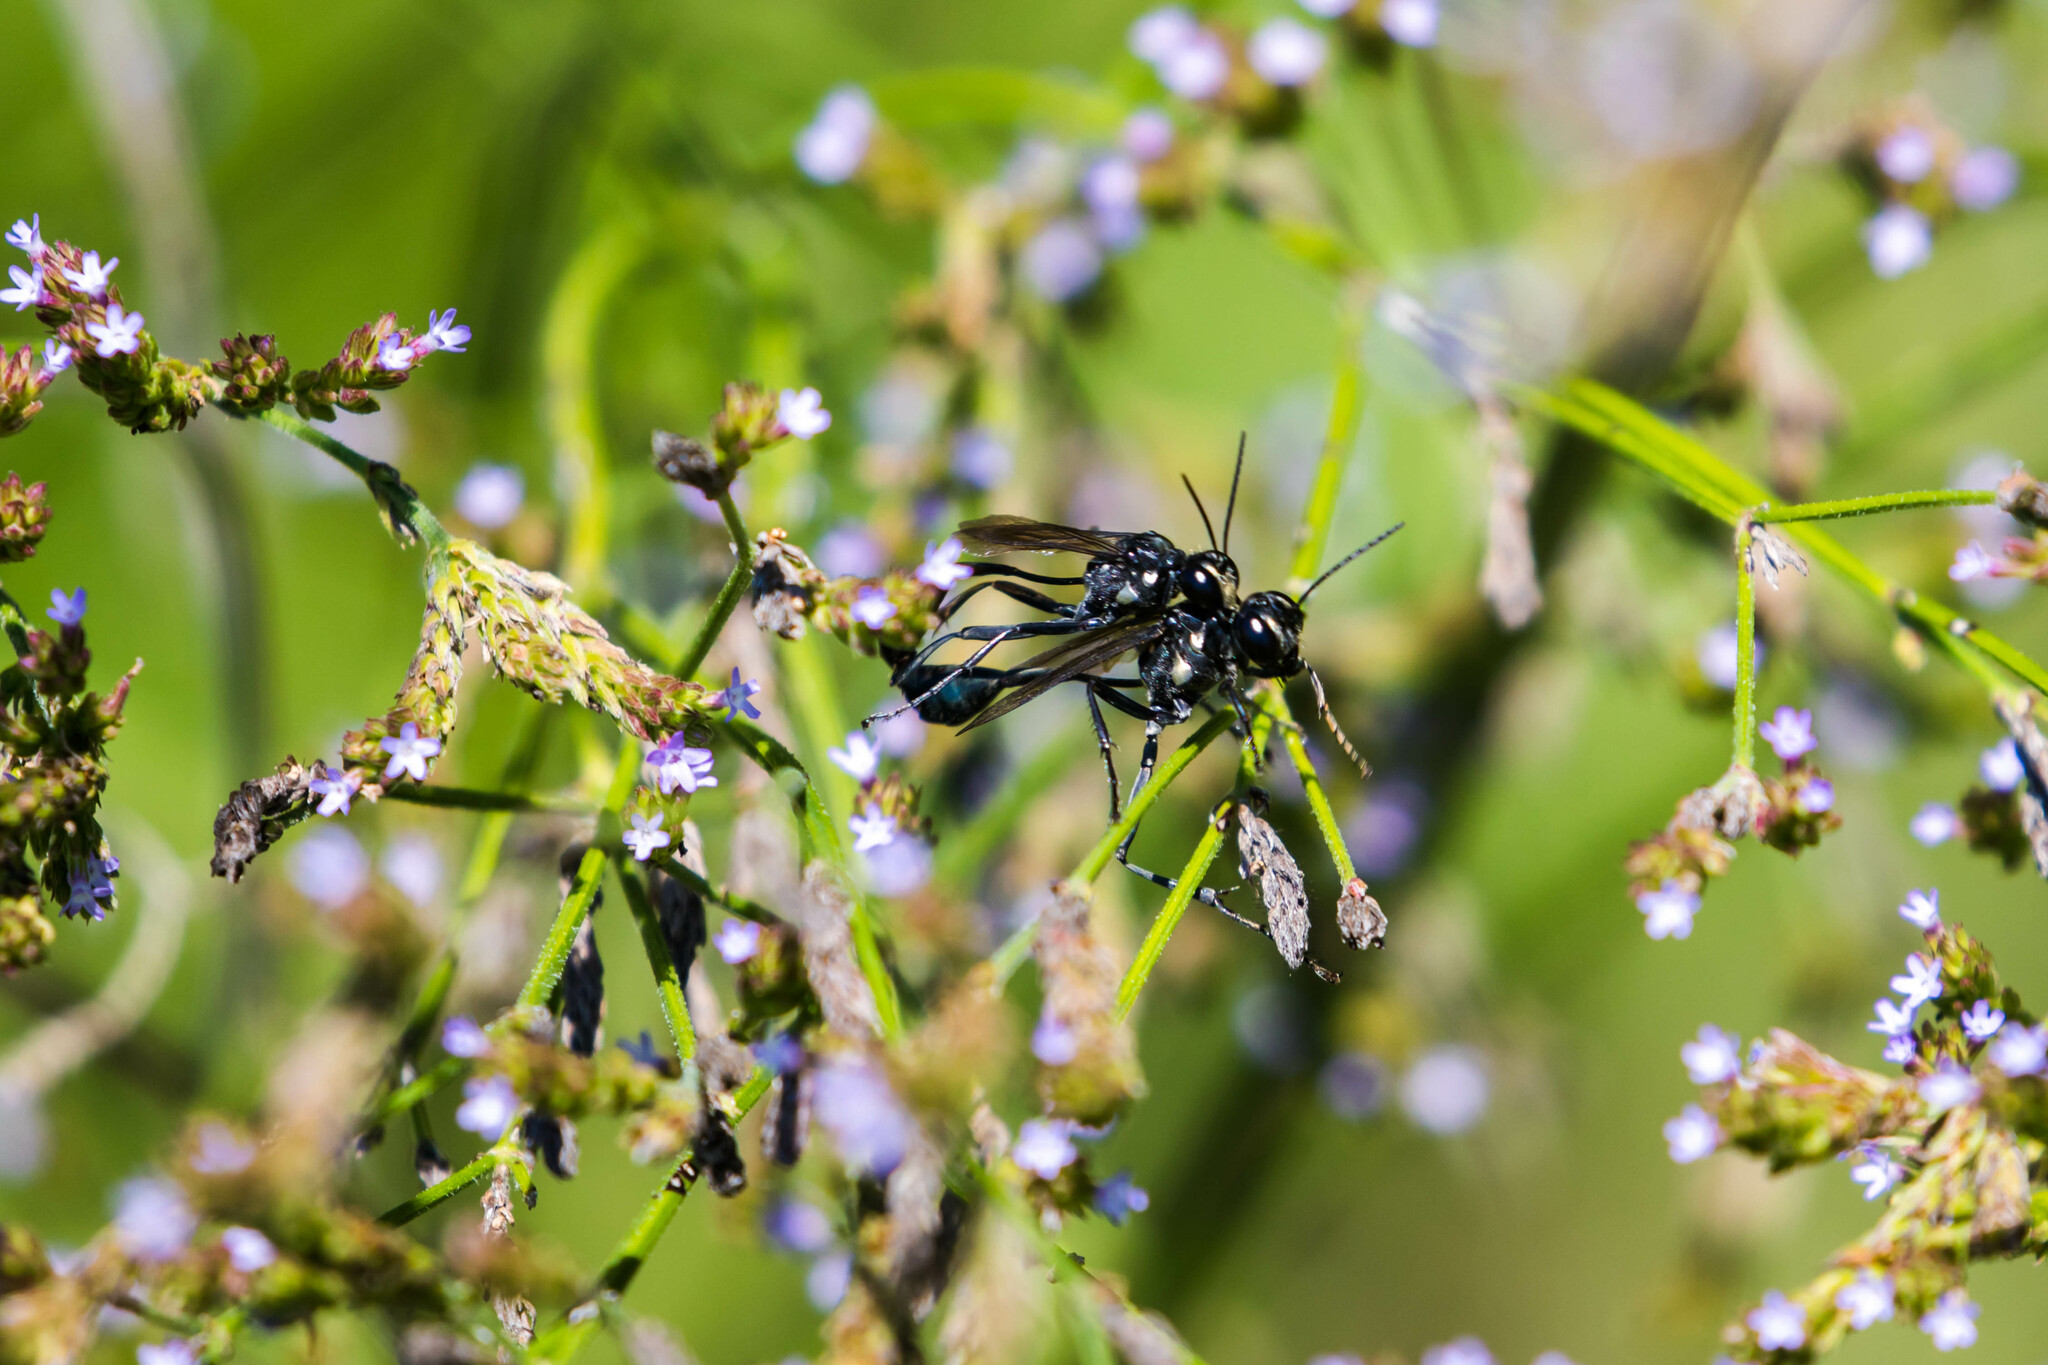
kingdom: Animalia
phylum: Arthropoda
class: Insecta
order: Hymenoptera
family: Sphecidae
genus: Eremnophila
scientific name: Eremnophila aureonotata
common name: Gold-marked thread-waisted wasp
